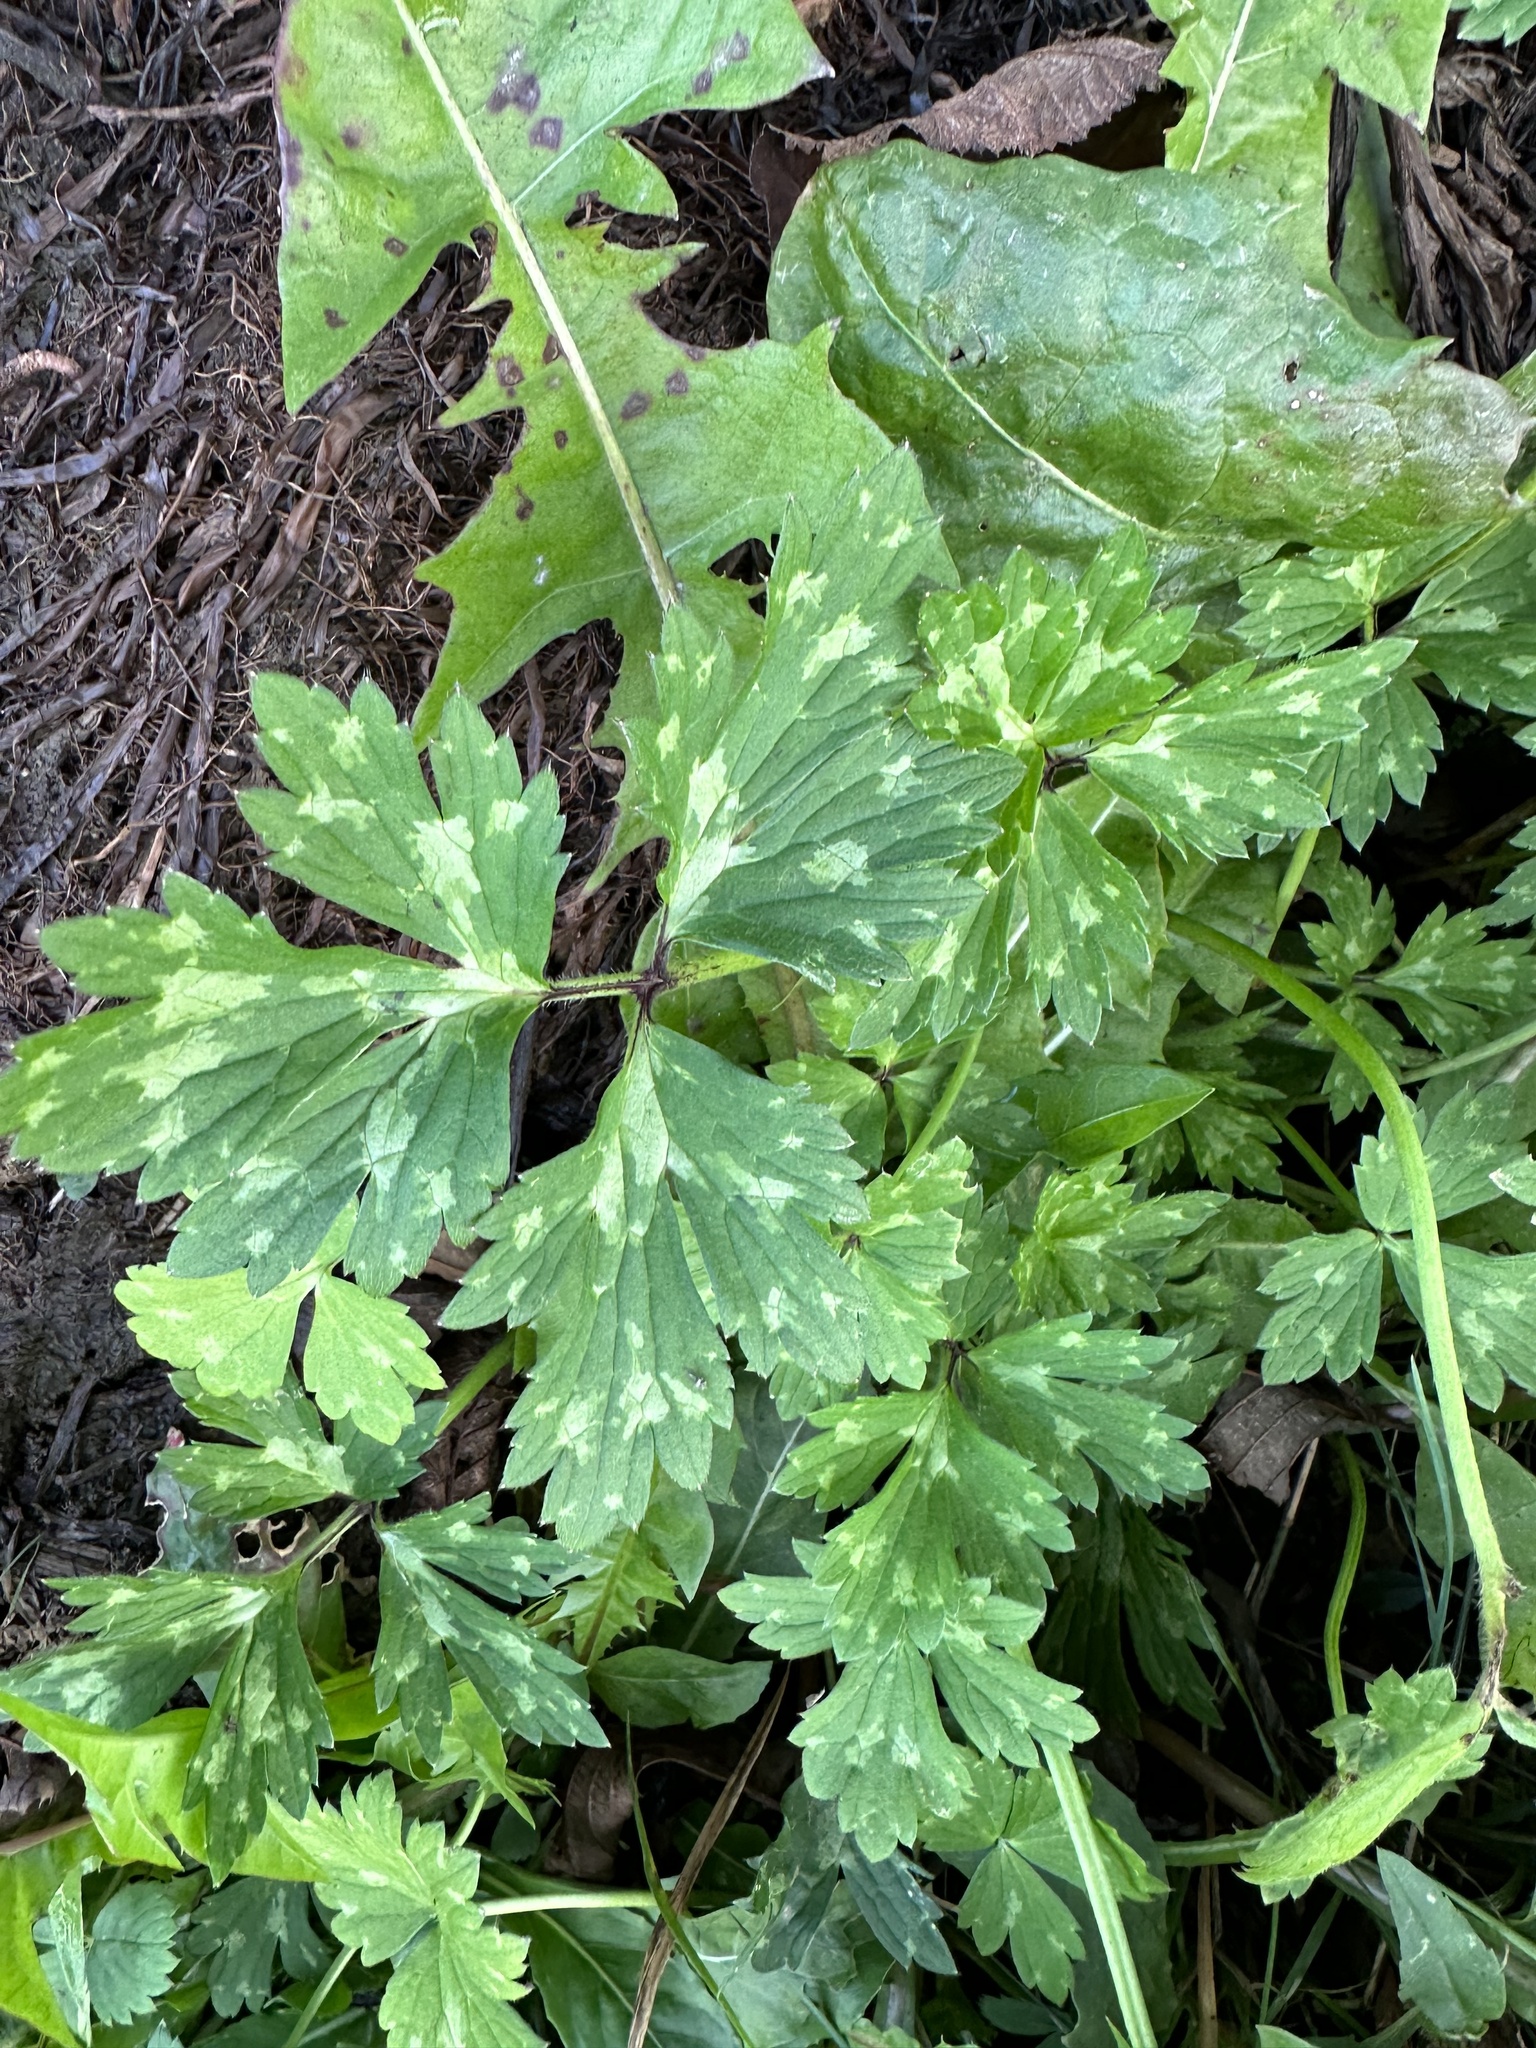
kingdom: Plantae
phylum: Tracheophyta
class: Magnoliopsida
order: Ranunculales
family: Ranunculaceae
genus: Ranunculus
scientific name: Ranunculus repens
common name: Creeping buttercup
